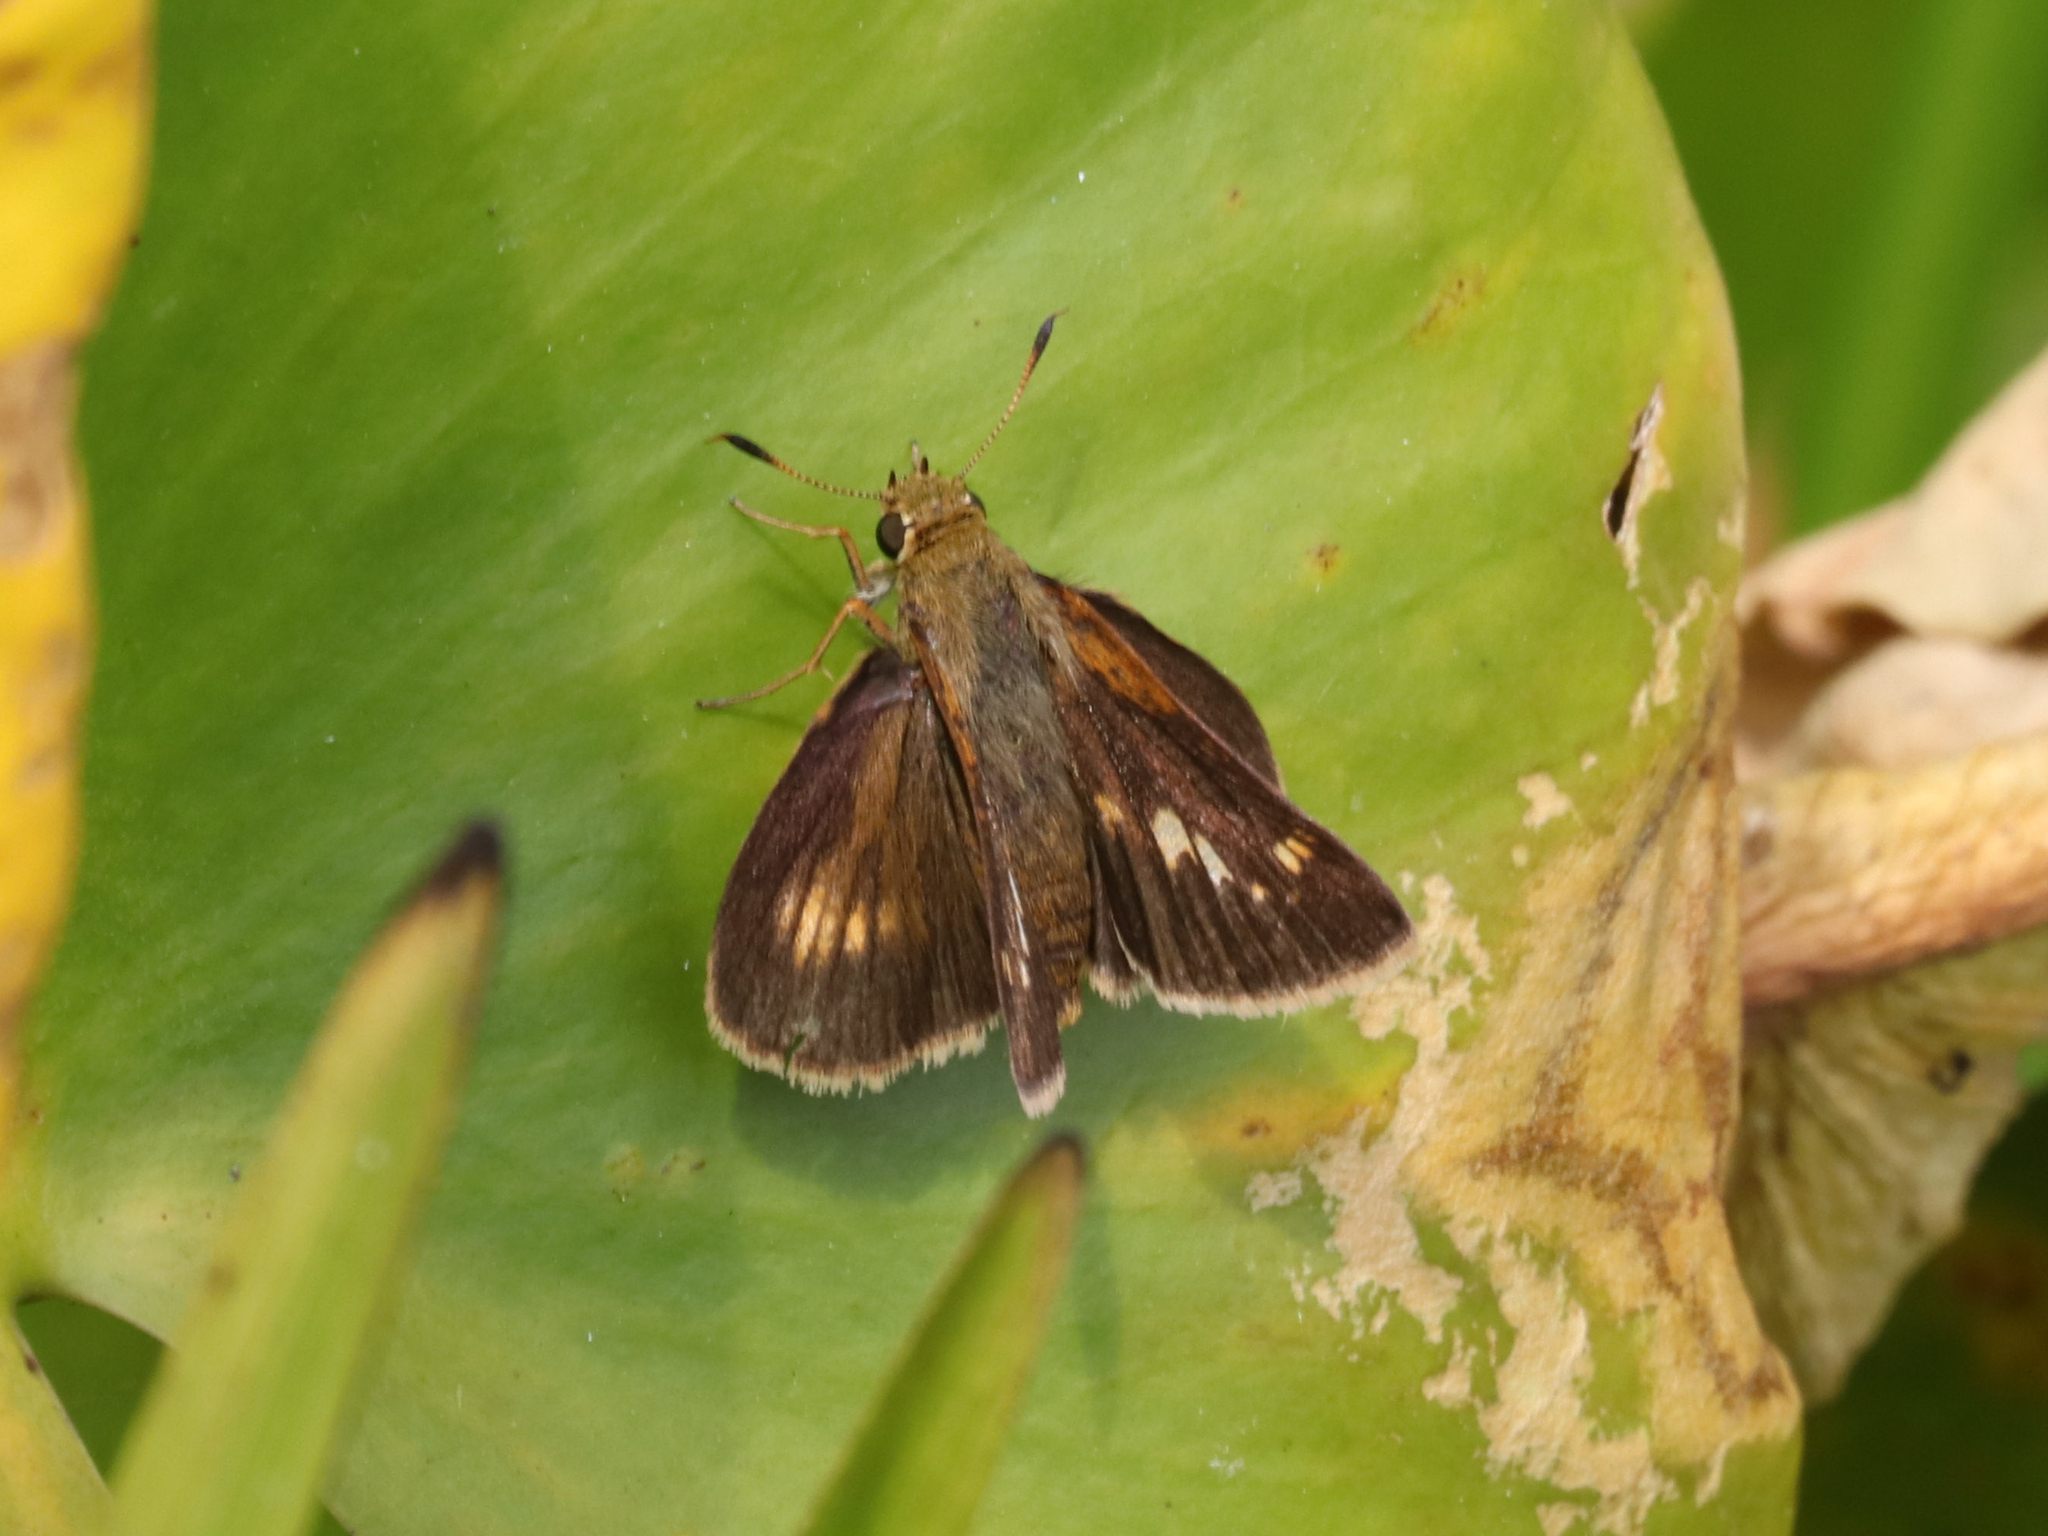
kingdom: Animalia
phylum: Arthropoda
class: Insecta
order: Lepidoptera
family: Hesperiidae
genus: Euphyes
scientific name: Euphyes conspicua
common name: Black dash
